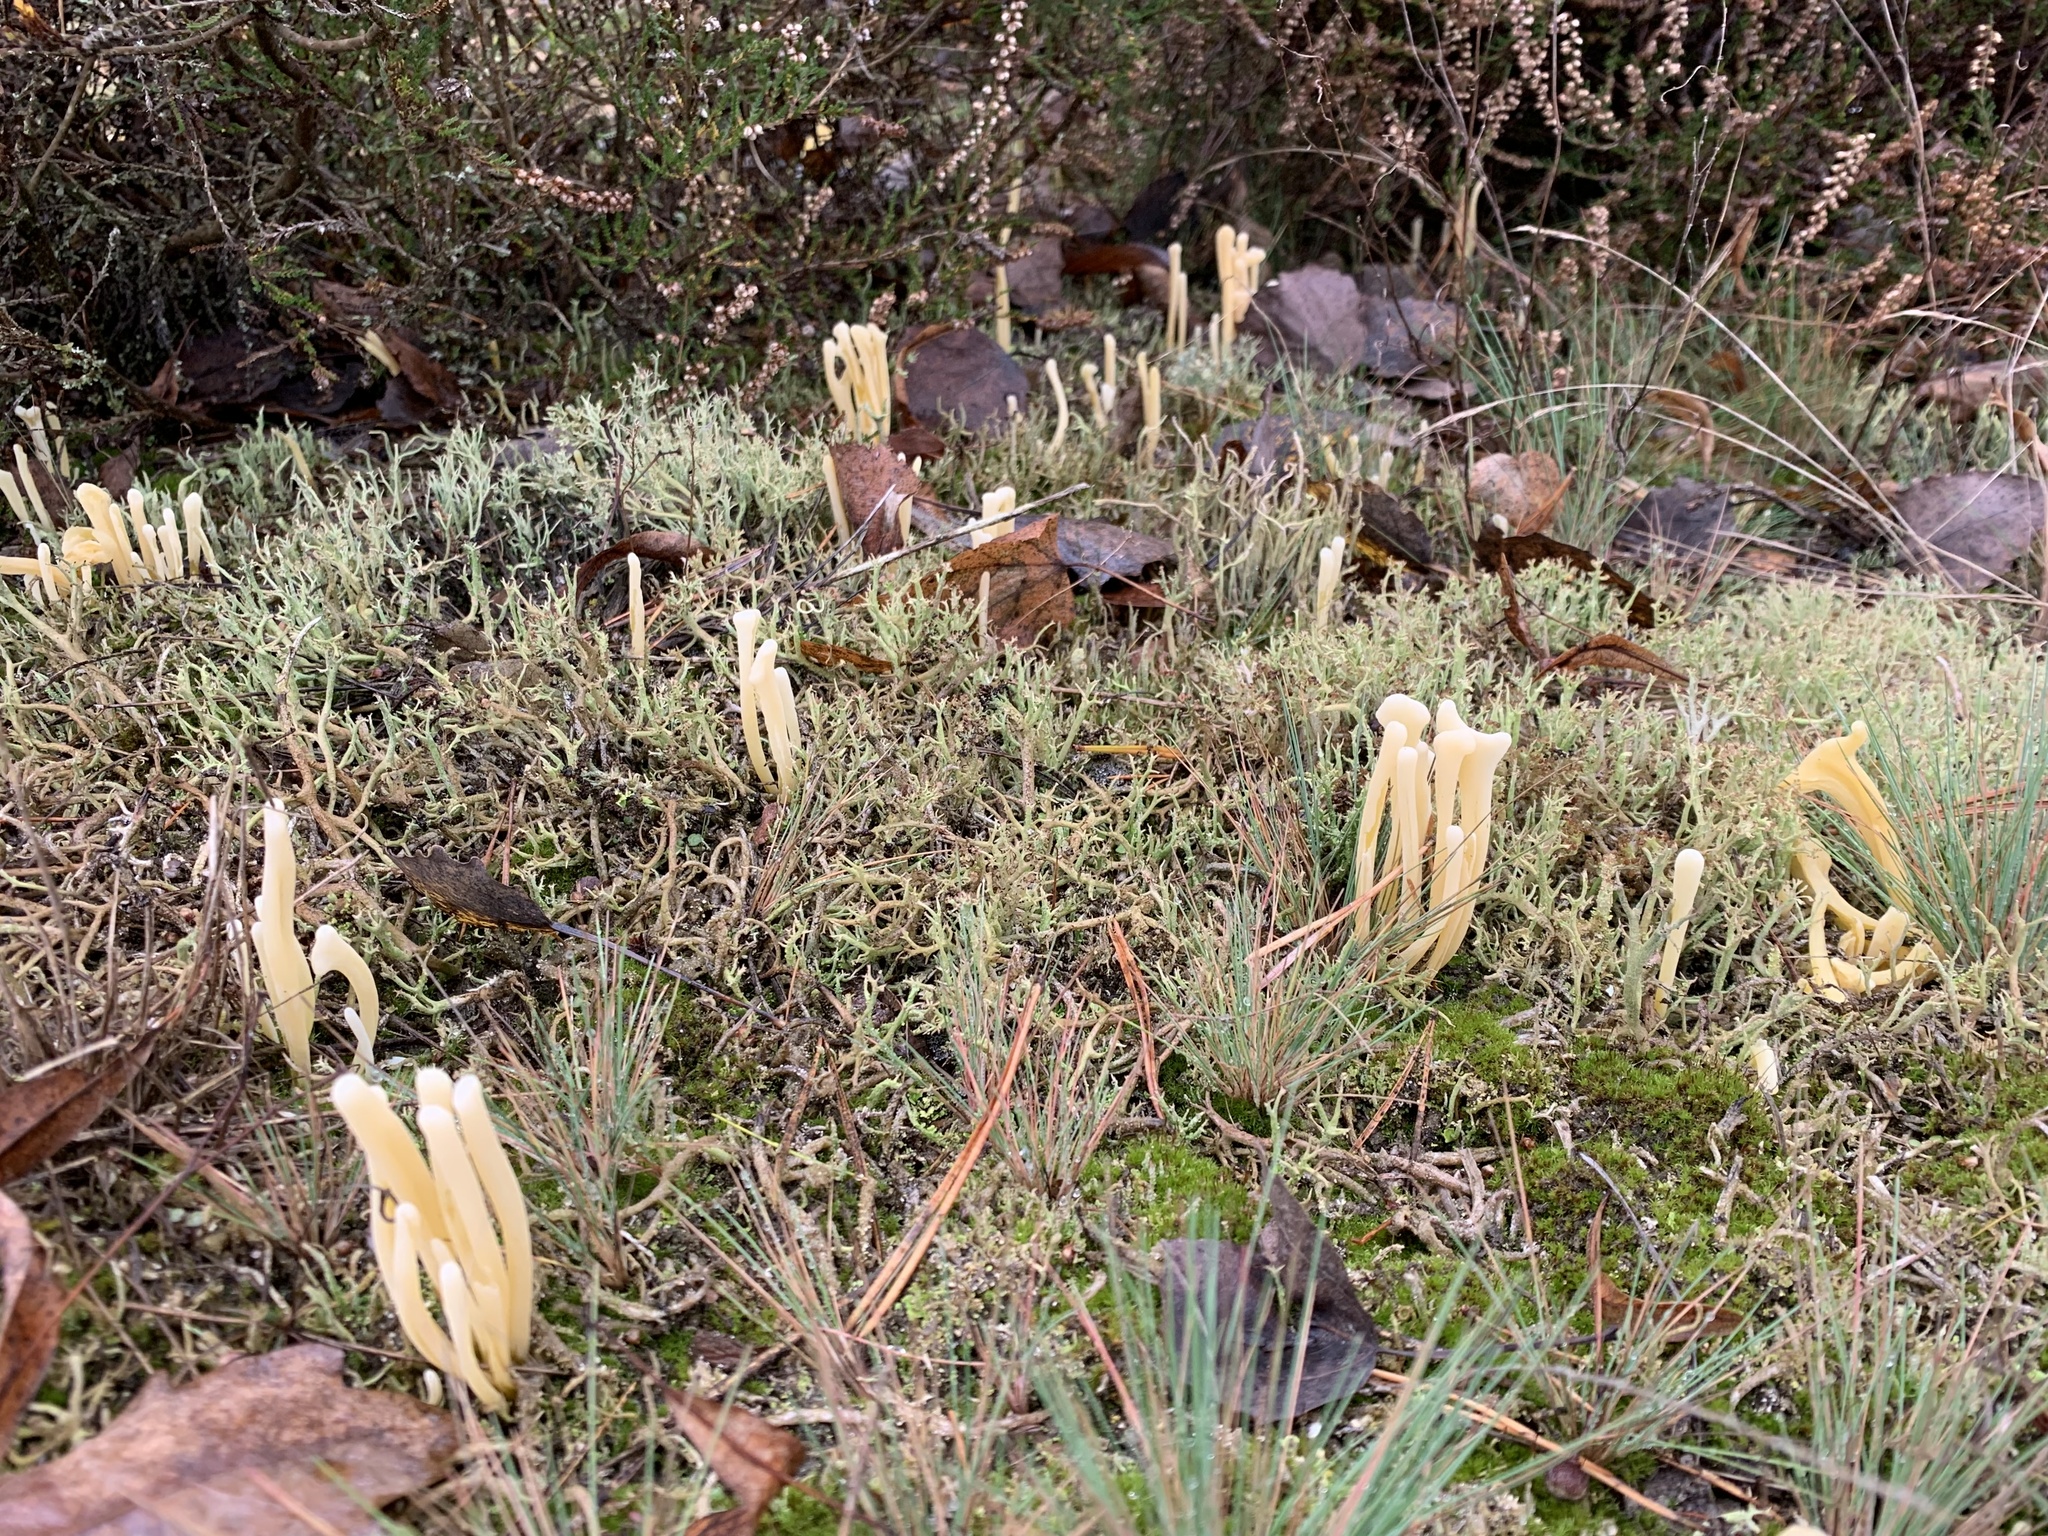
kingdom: Fungi
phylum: Basidiomycota
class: Agaricomycetes
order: Agaricales
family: Clavariaceae
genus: Clavaria
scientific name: Clavaria argillacea
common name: Moor club
